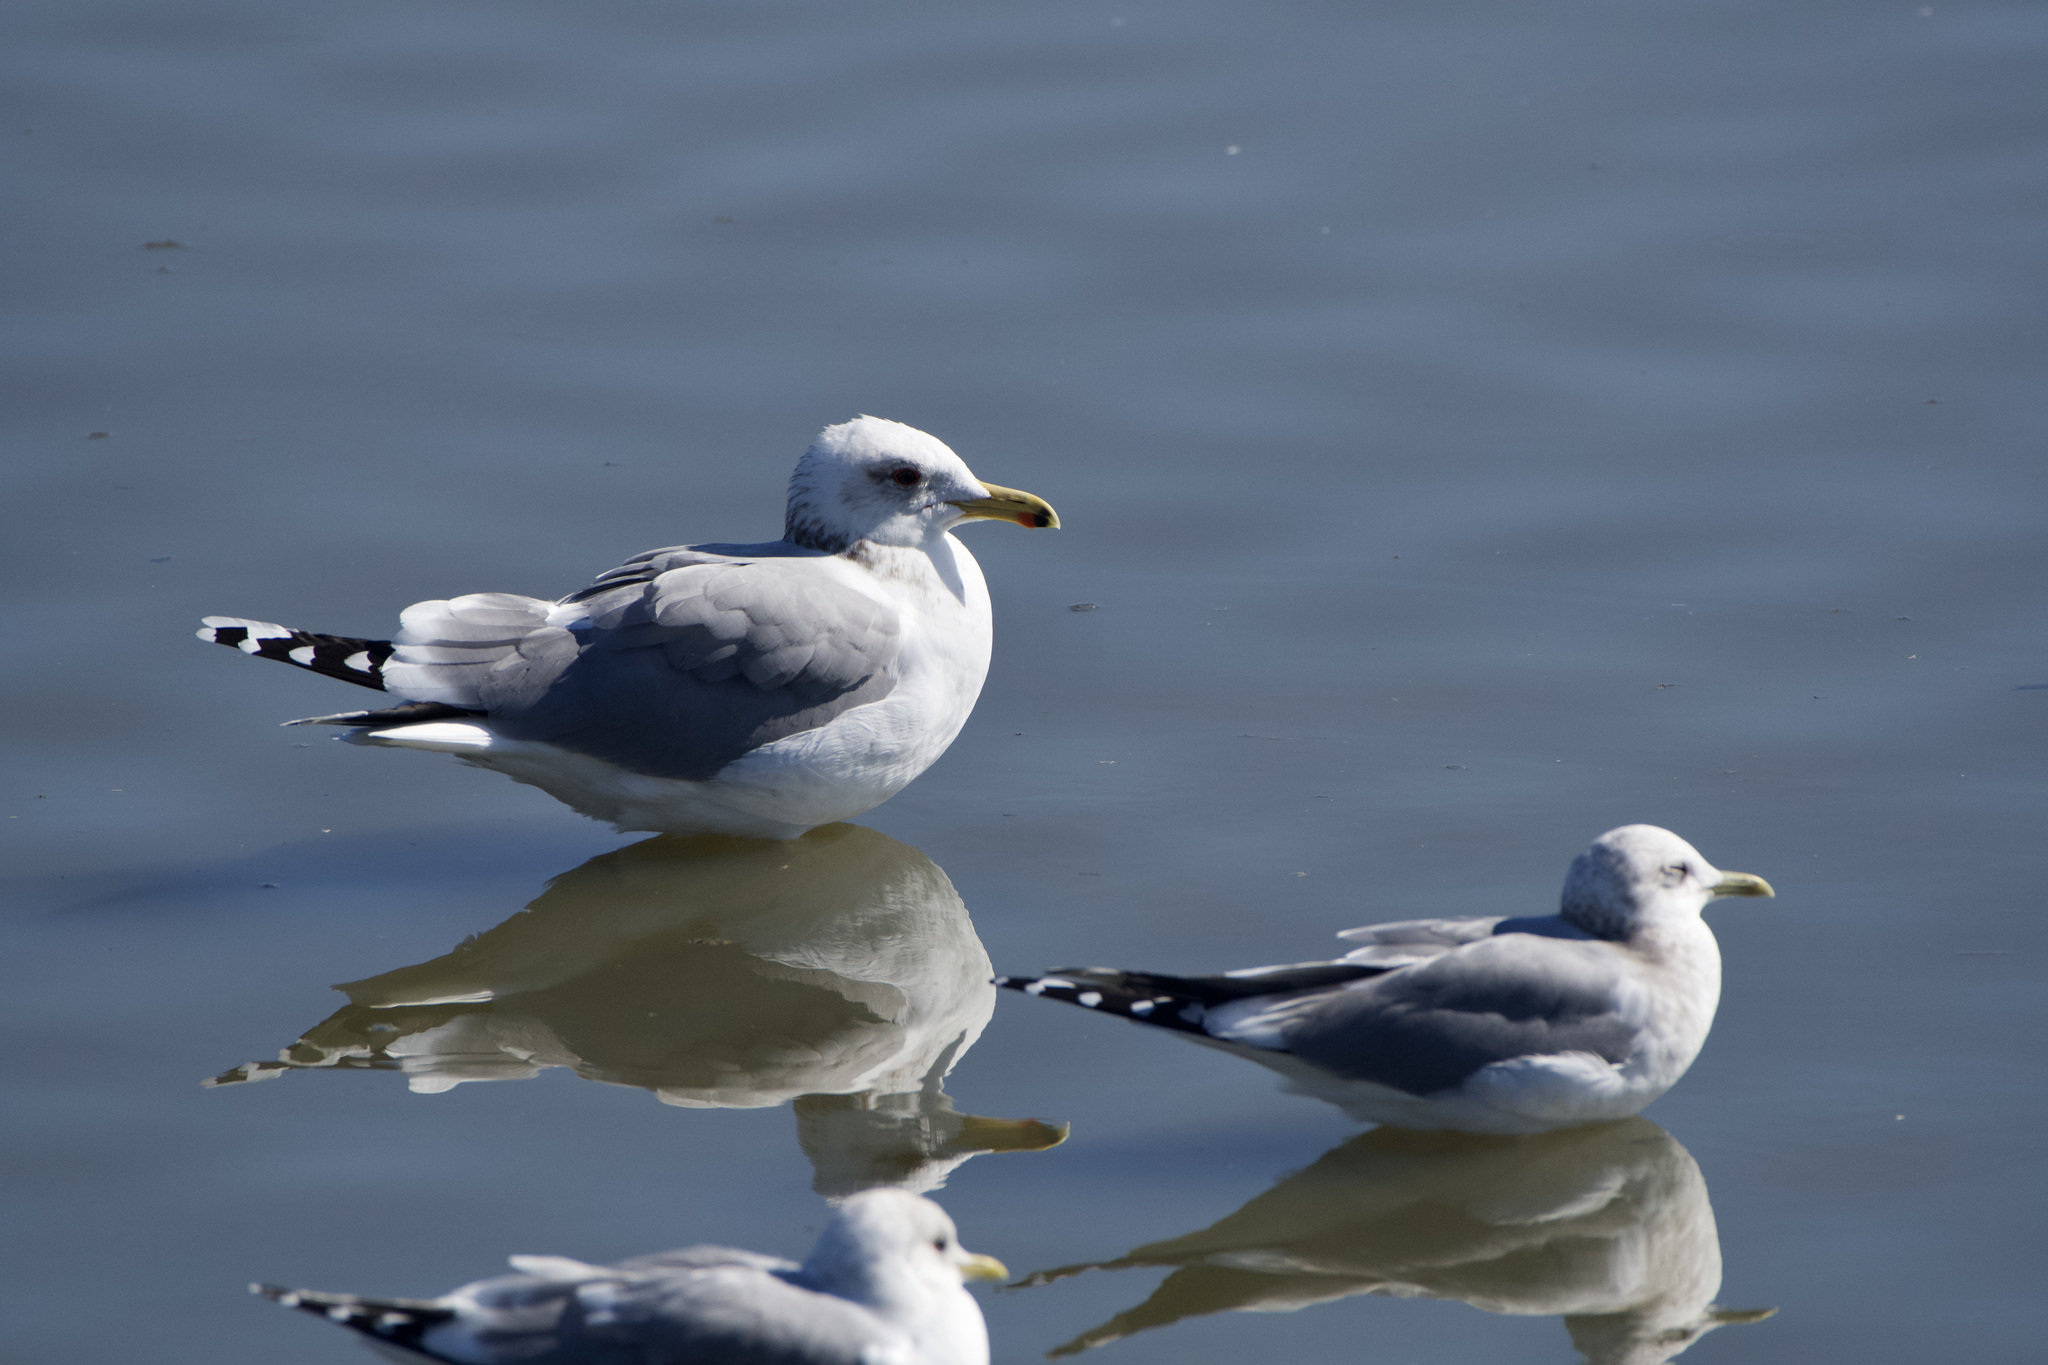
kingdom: Animalia
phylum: Chordata
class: Aves
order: Charadriiformes
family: Laridae
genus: Larus
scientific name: Larus californicus
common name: California gull
